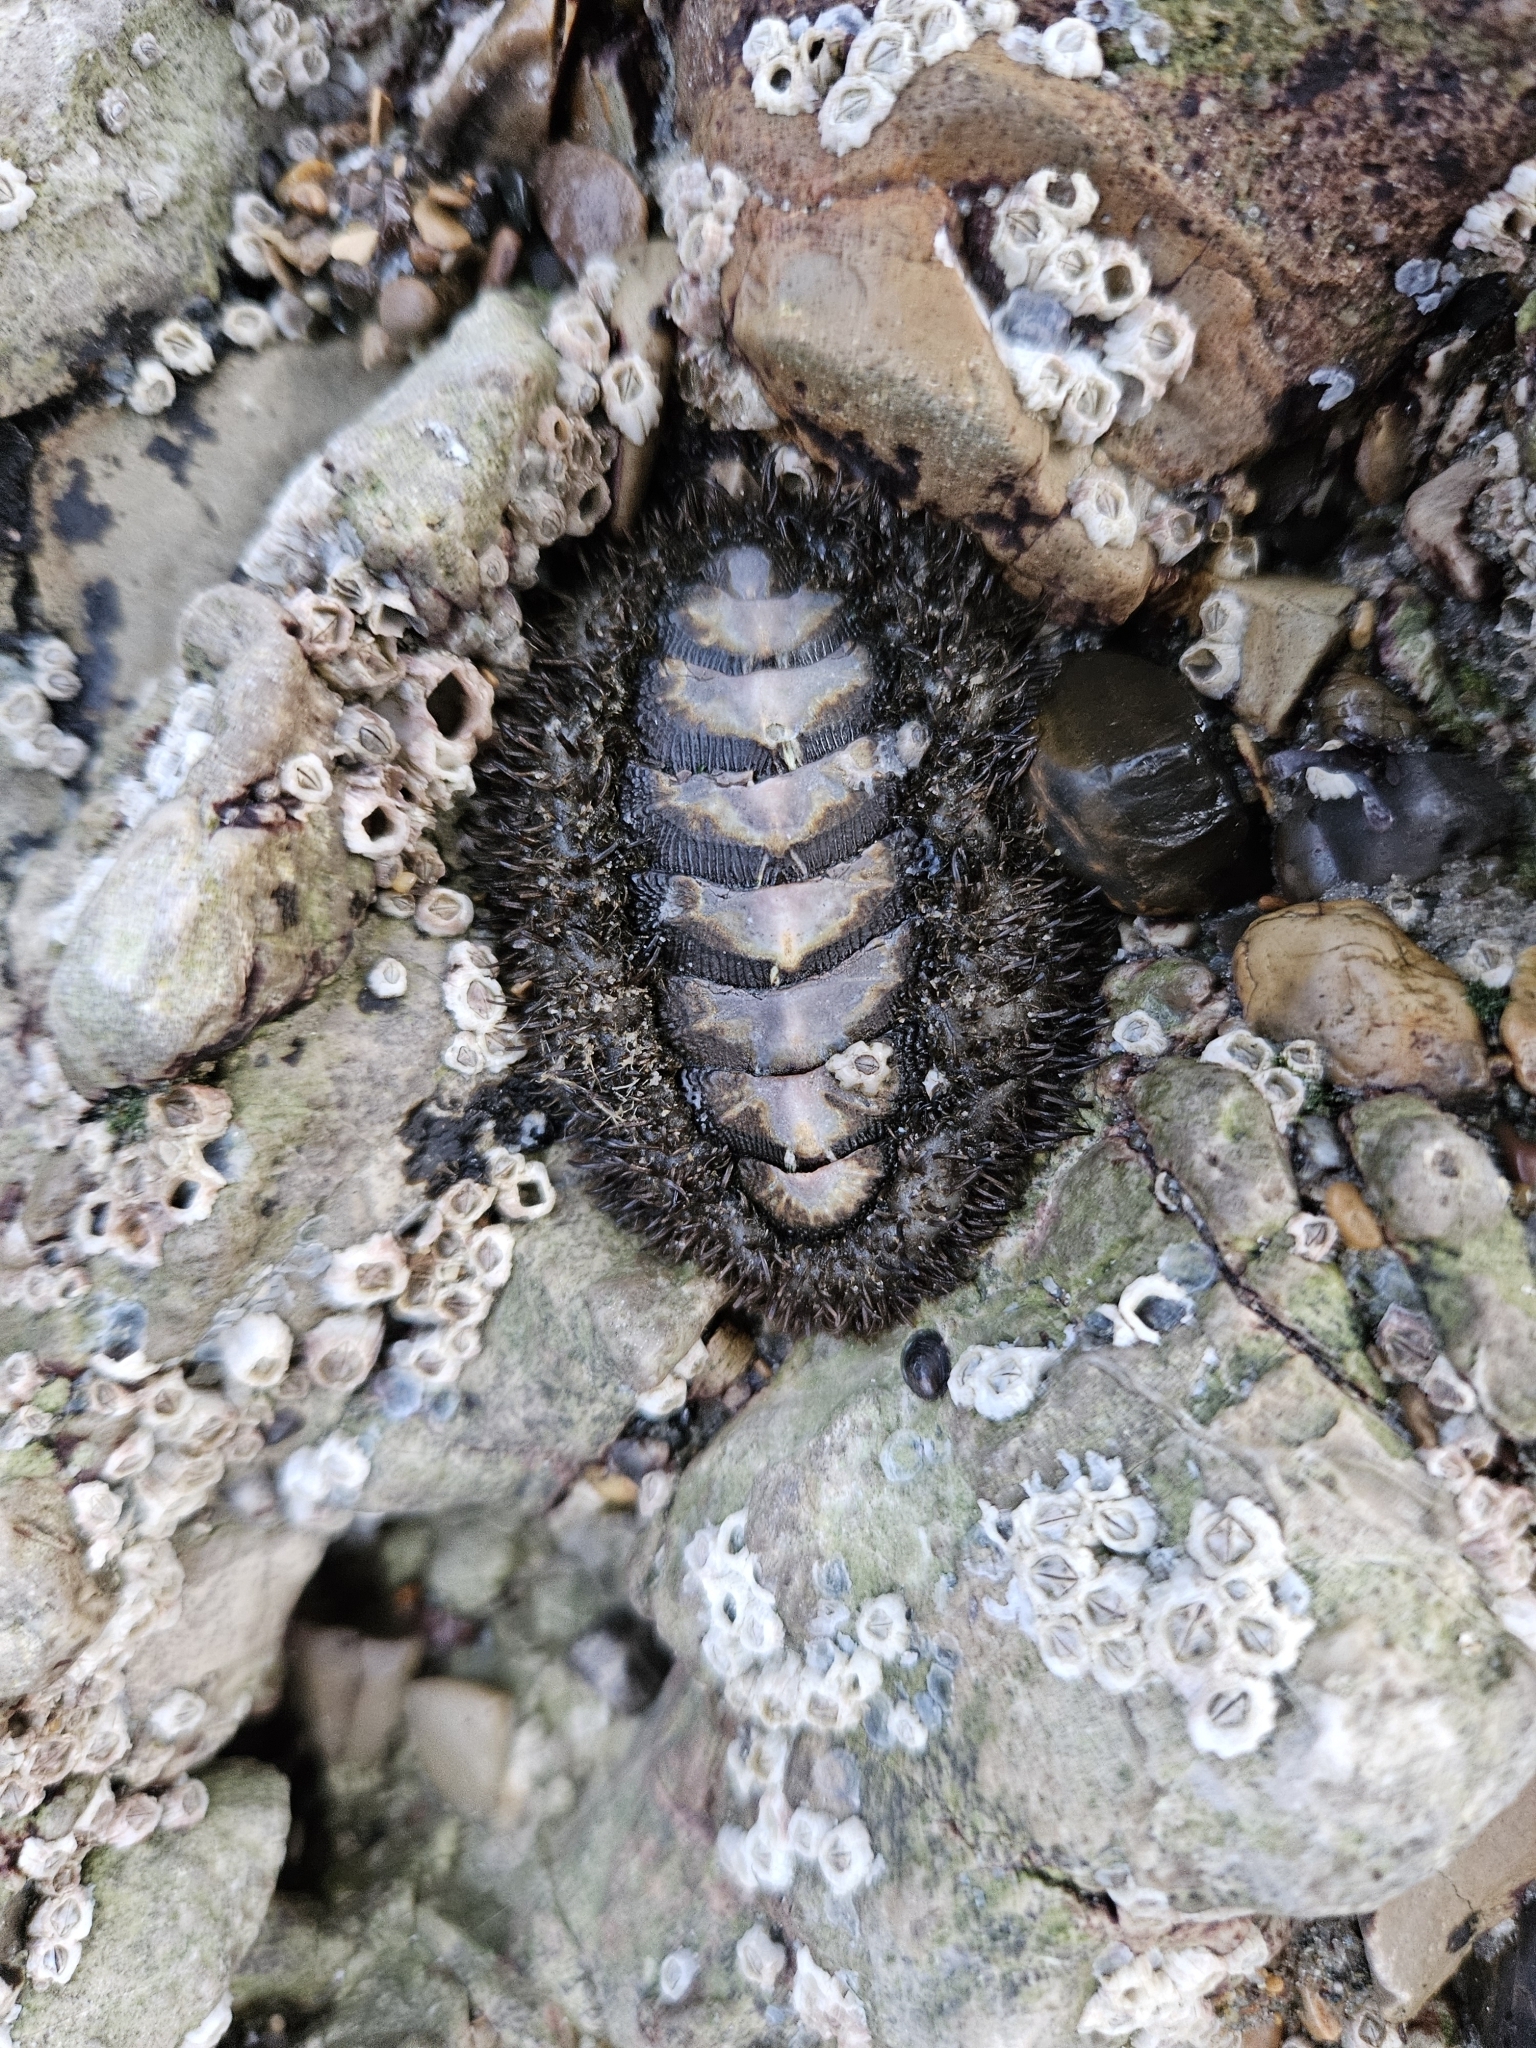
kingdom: Animalia
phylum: Mollusca
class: Polyplacophora
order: Chitonida
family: Mopaliidae
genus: Mopalia
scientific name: Mopalia muscosa
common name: Mossy chiton
